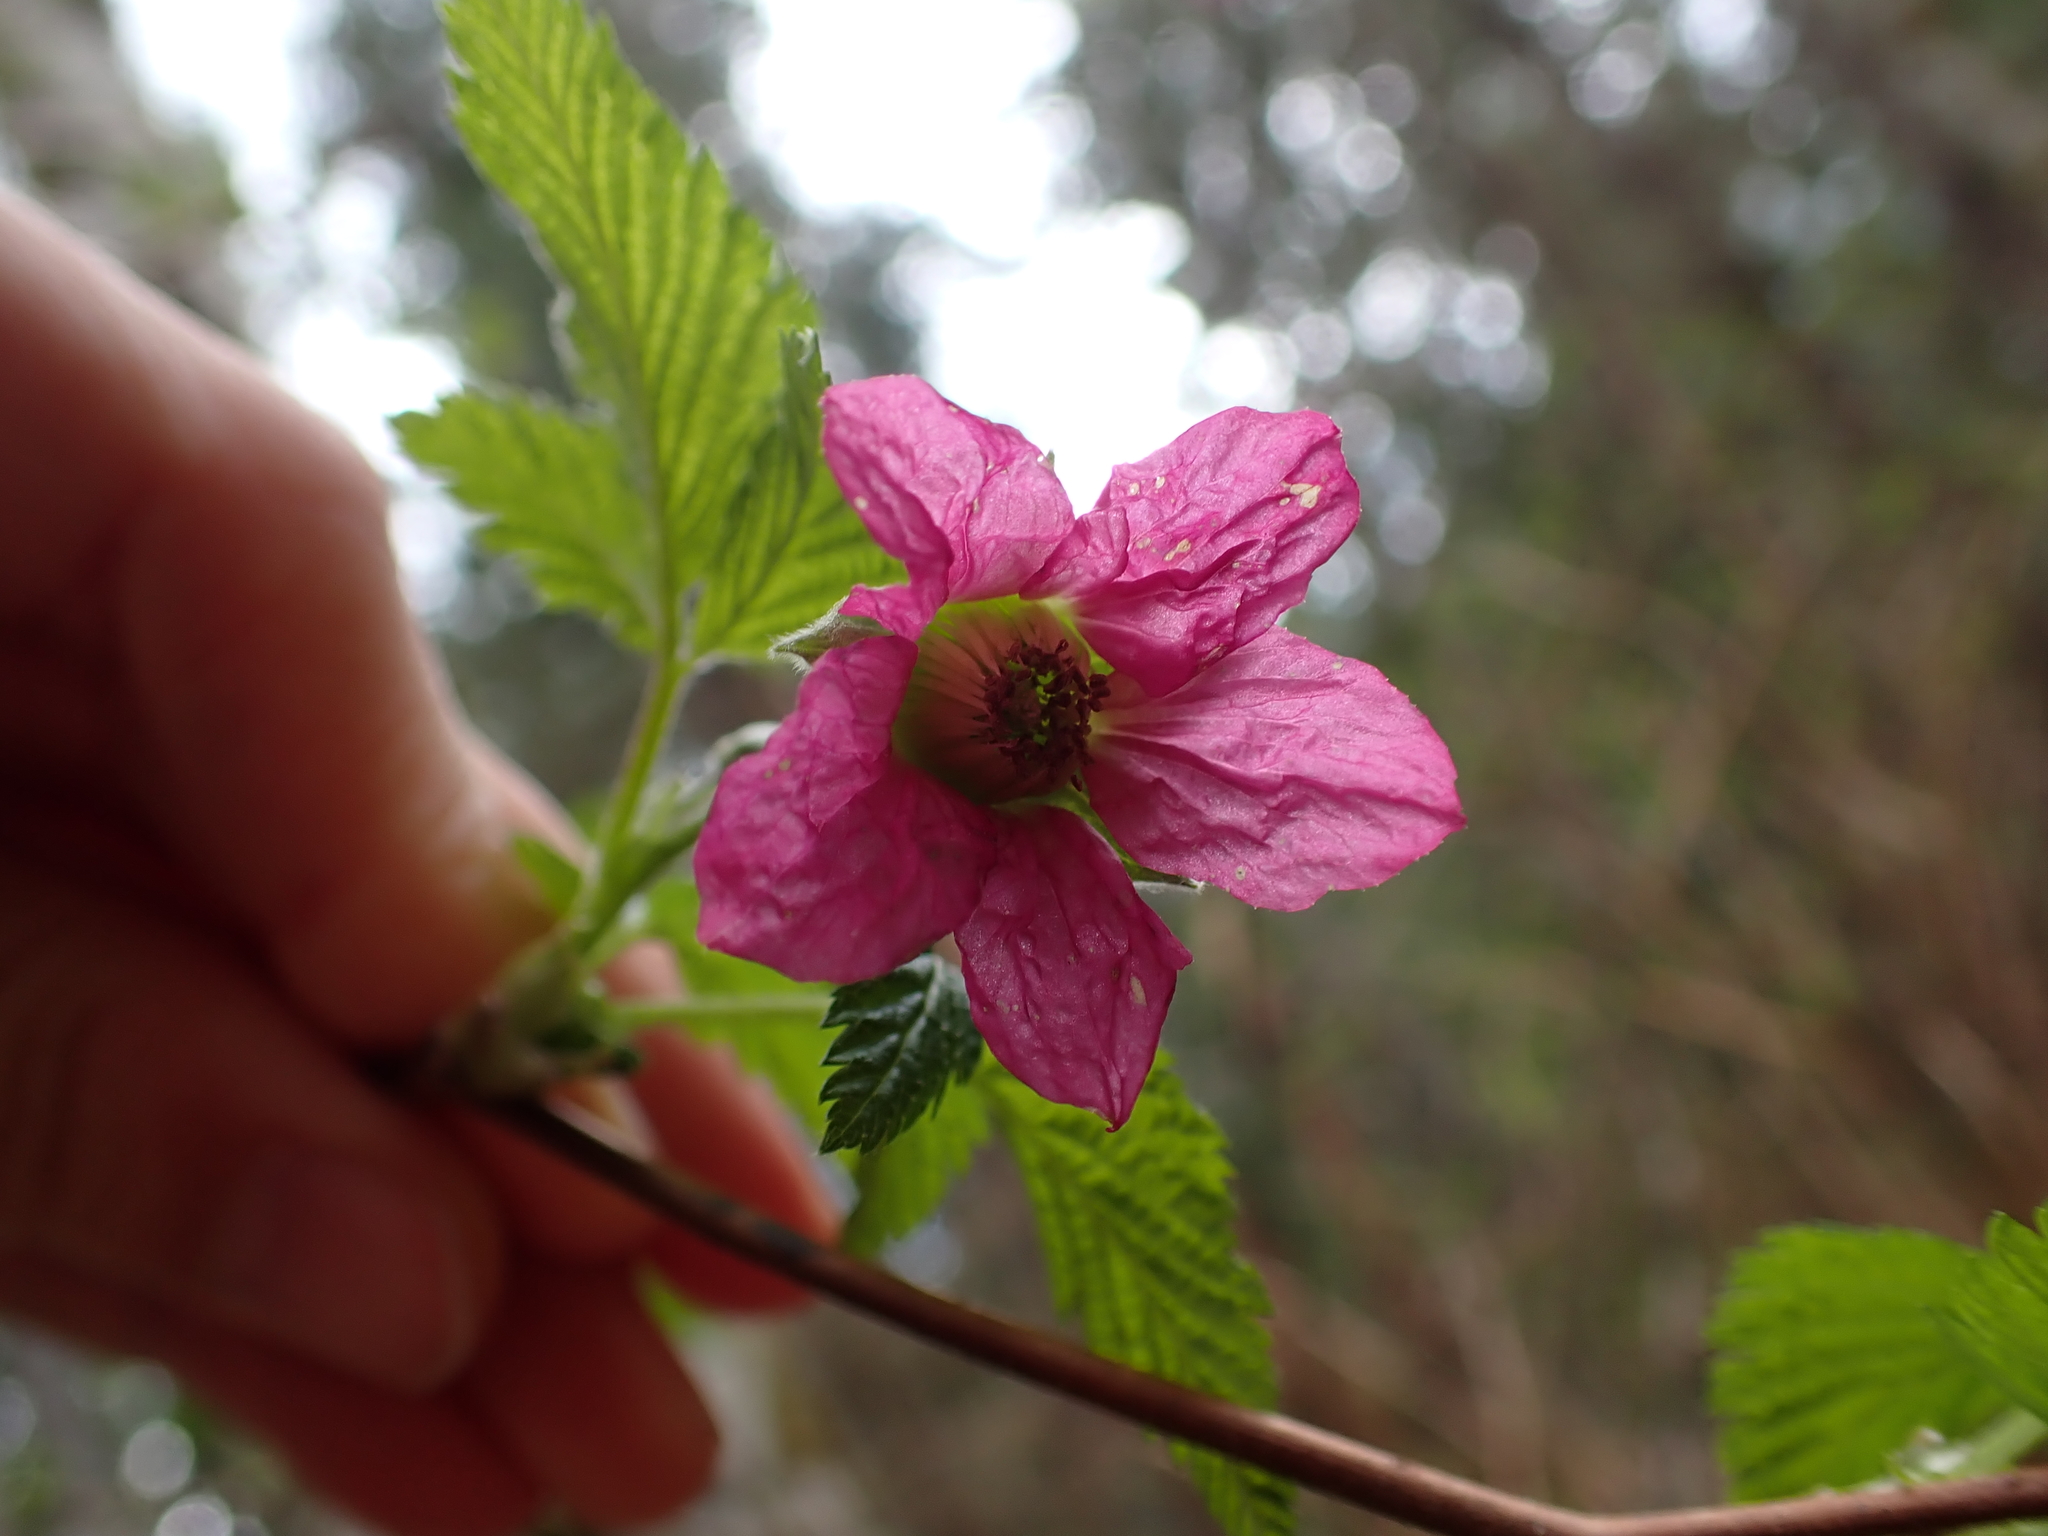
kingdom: Plantae
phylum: Tracheophyta
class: Magnoliopsida
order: Rosales
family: Rosaceae
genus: Rubus
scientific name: Rubus spectabilis
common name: Salmonberry
